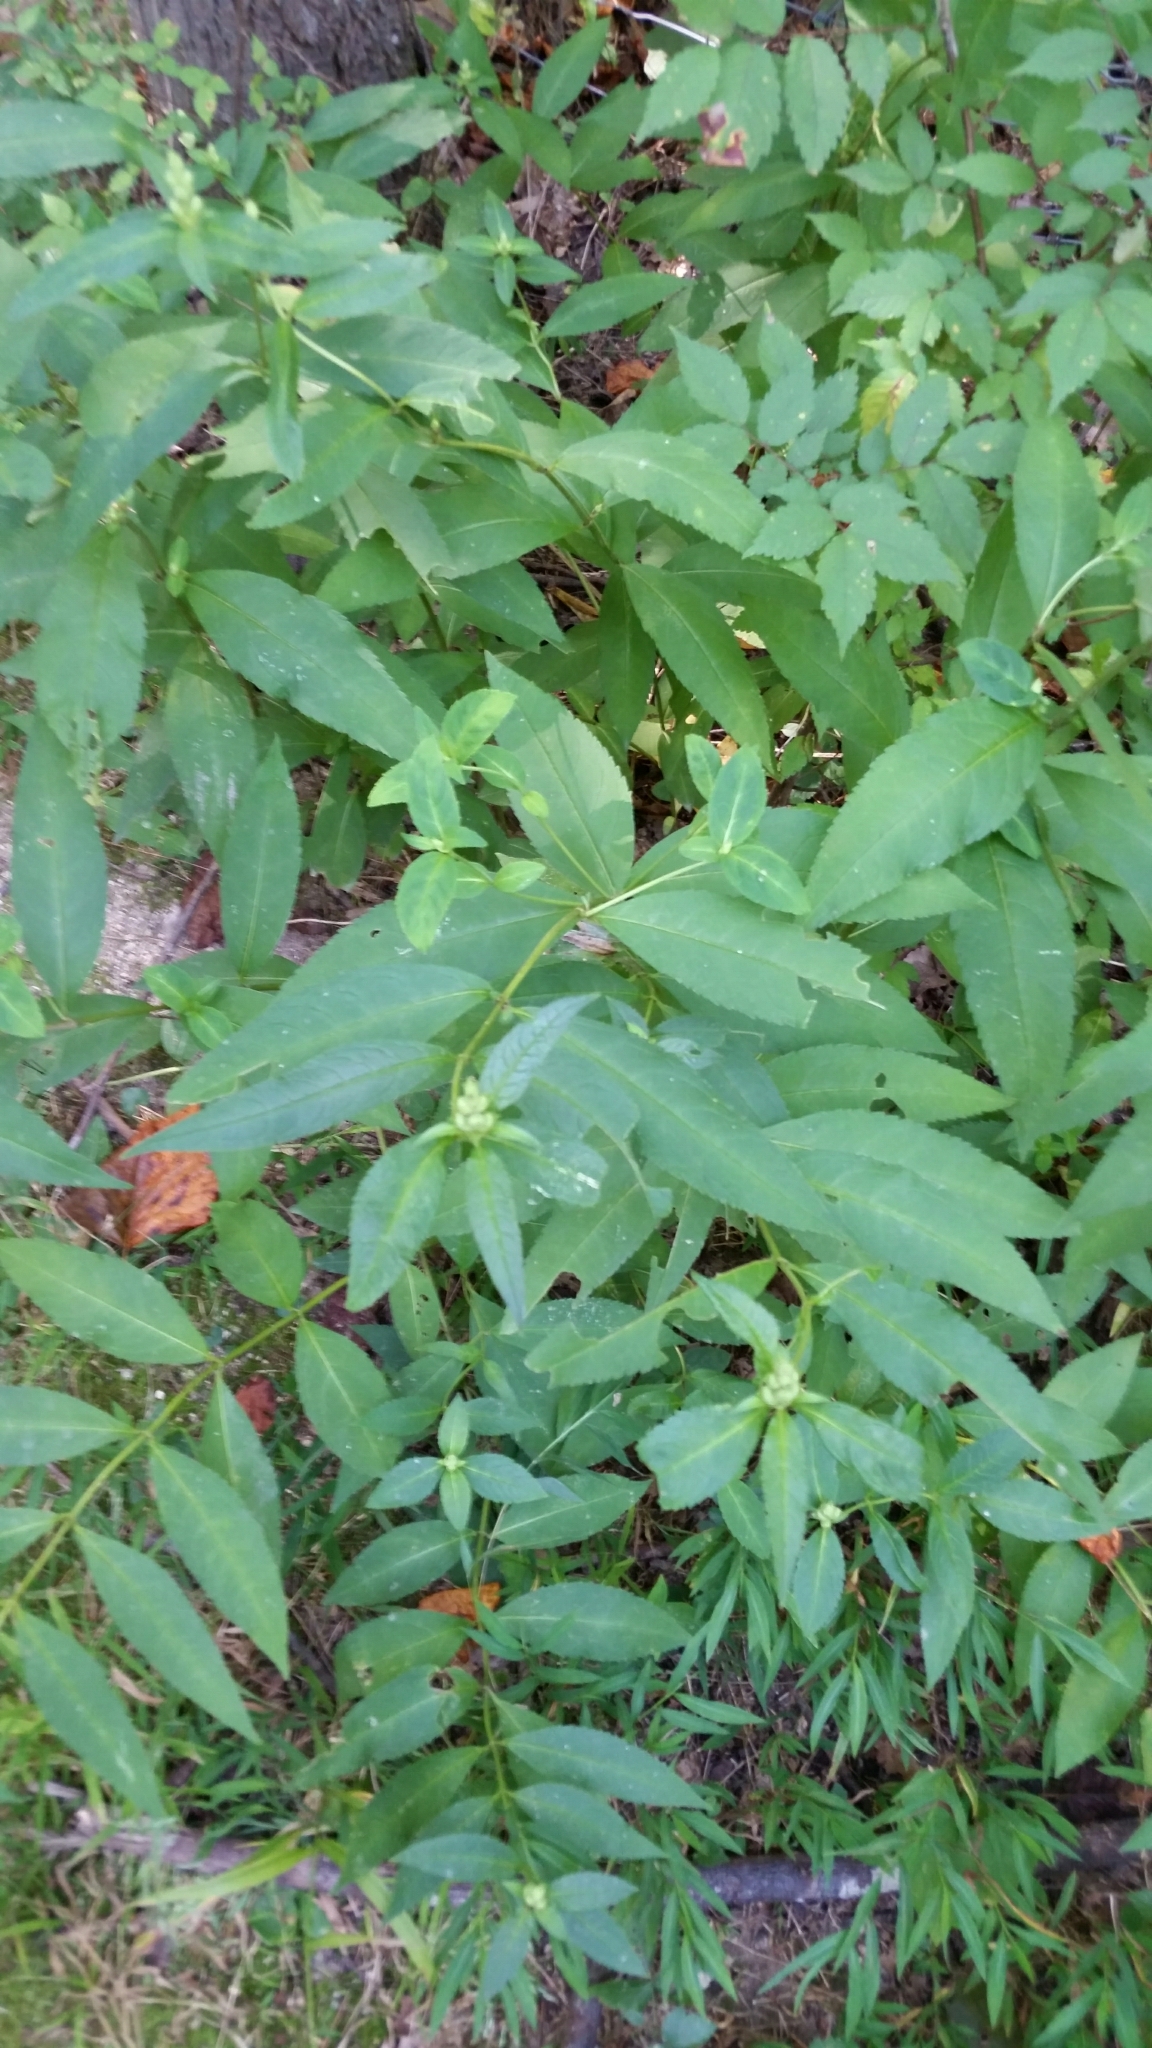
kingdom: Plantae
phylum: Tracheophyta
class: Magnoliopsida
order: Lamiales
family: Plantaginaceae
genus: Chelone
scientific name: Chelone glabra
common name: Snakehead
